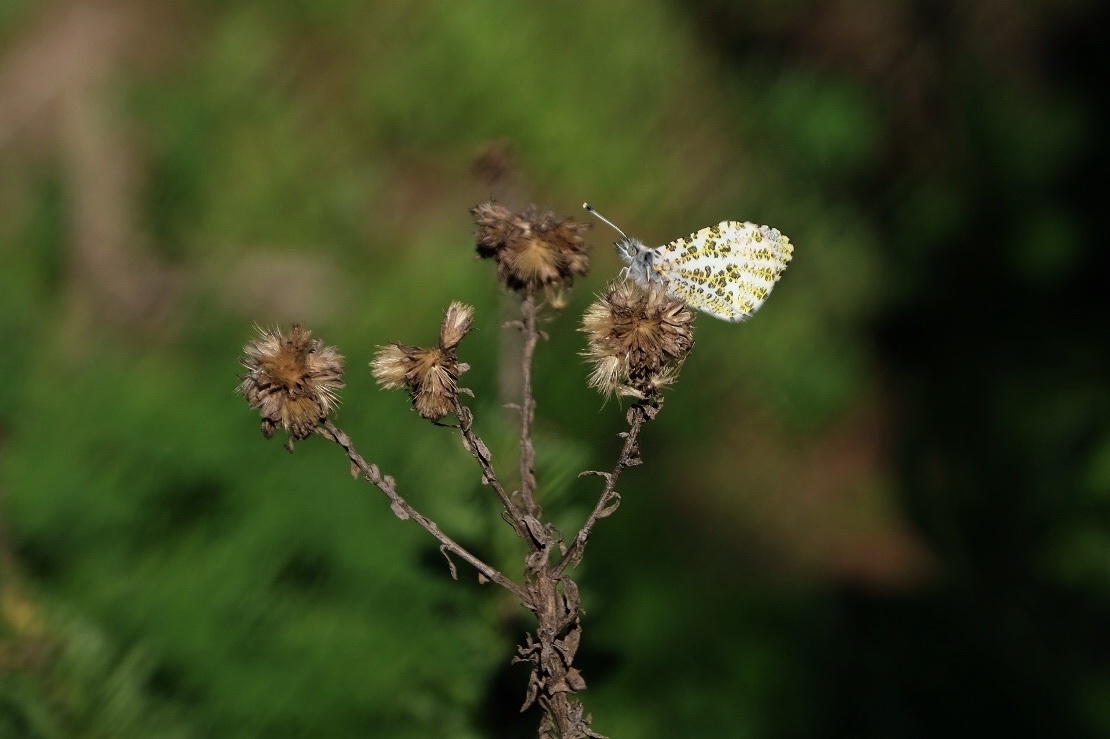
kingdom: Animalia
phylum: Arthropoda
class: Insecta
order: Lepidoptera
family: Pieridae
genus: Anthocharis
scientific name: Anthocharis sara
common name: Sara's orangetip
